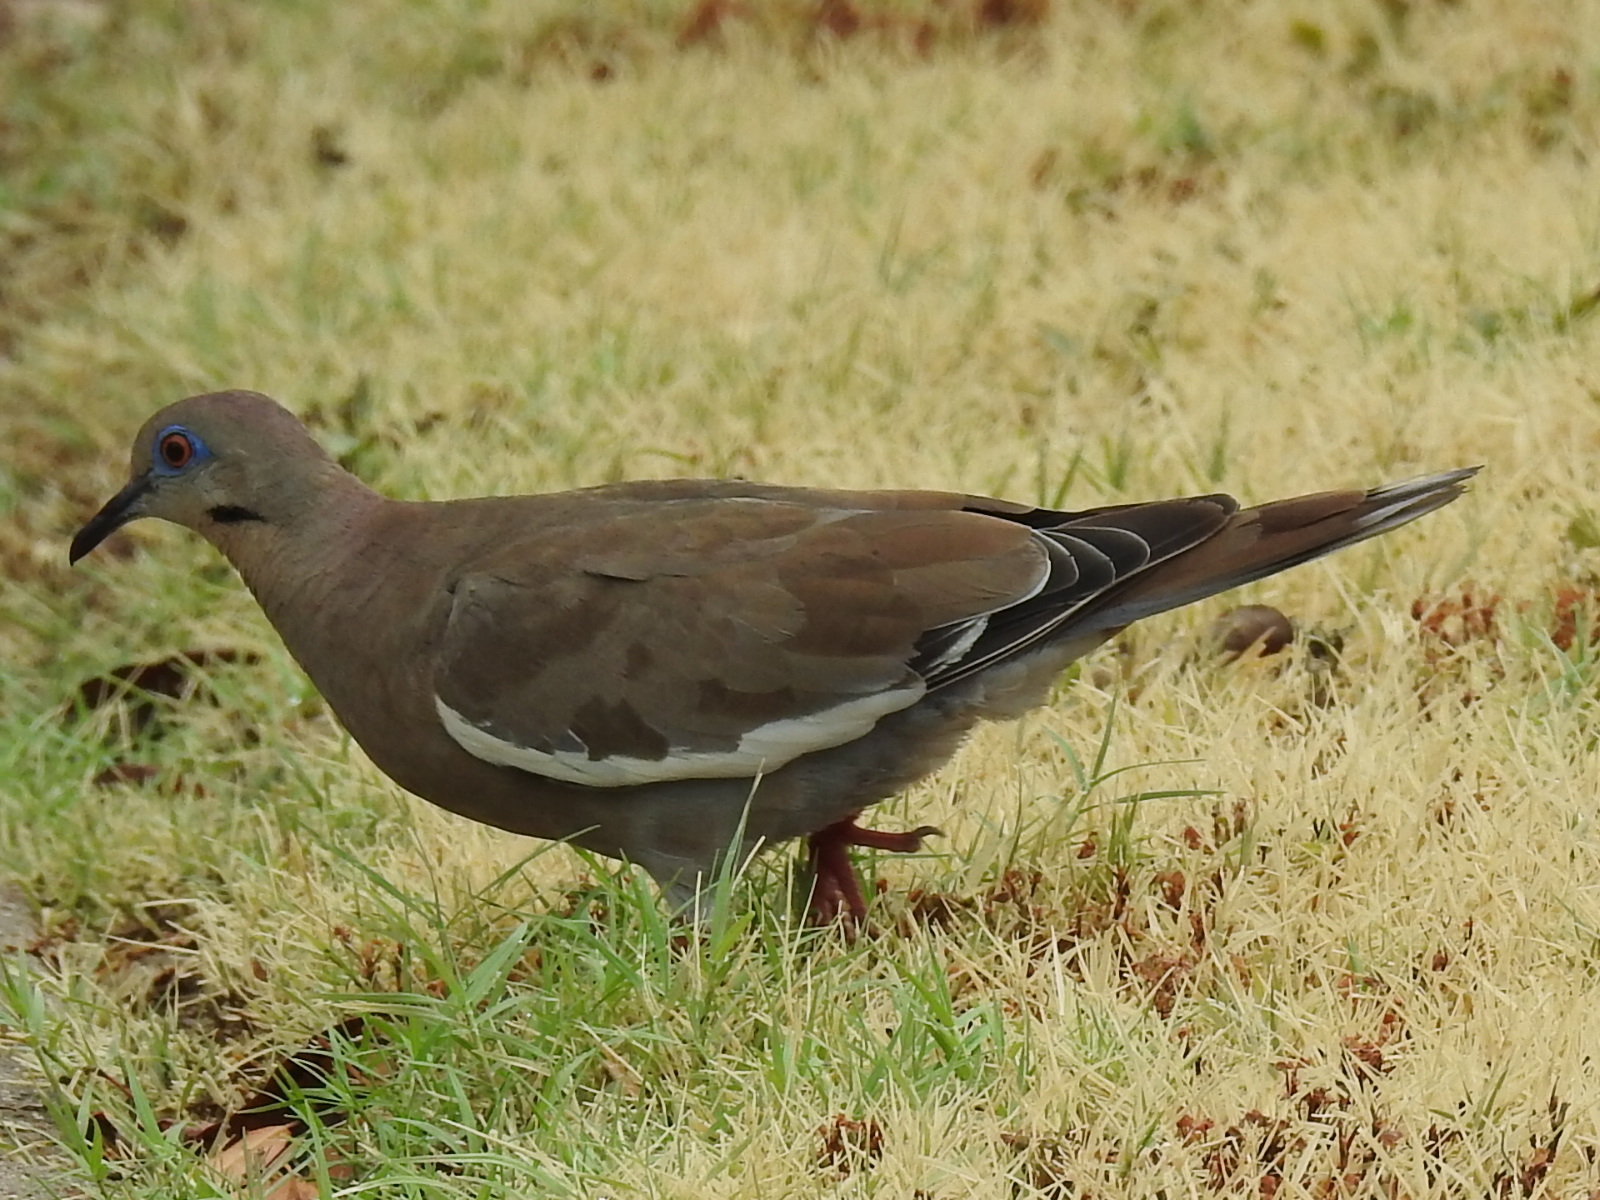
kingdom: Animalia
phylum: Chordata
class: Aves
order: Columbiformes
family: Columbidae
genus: Zenaida
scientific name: Zenaida asiatica
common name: White-winged dove
